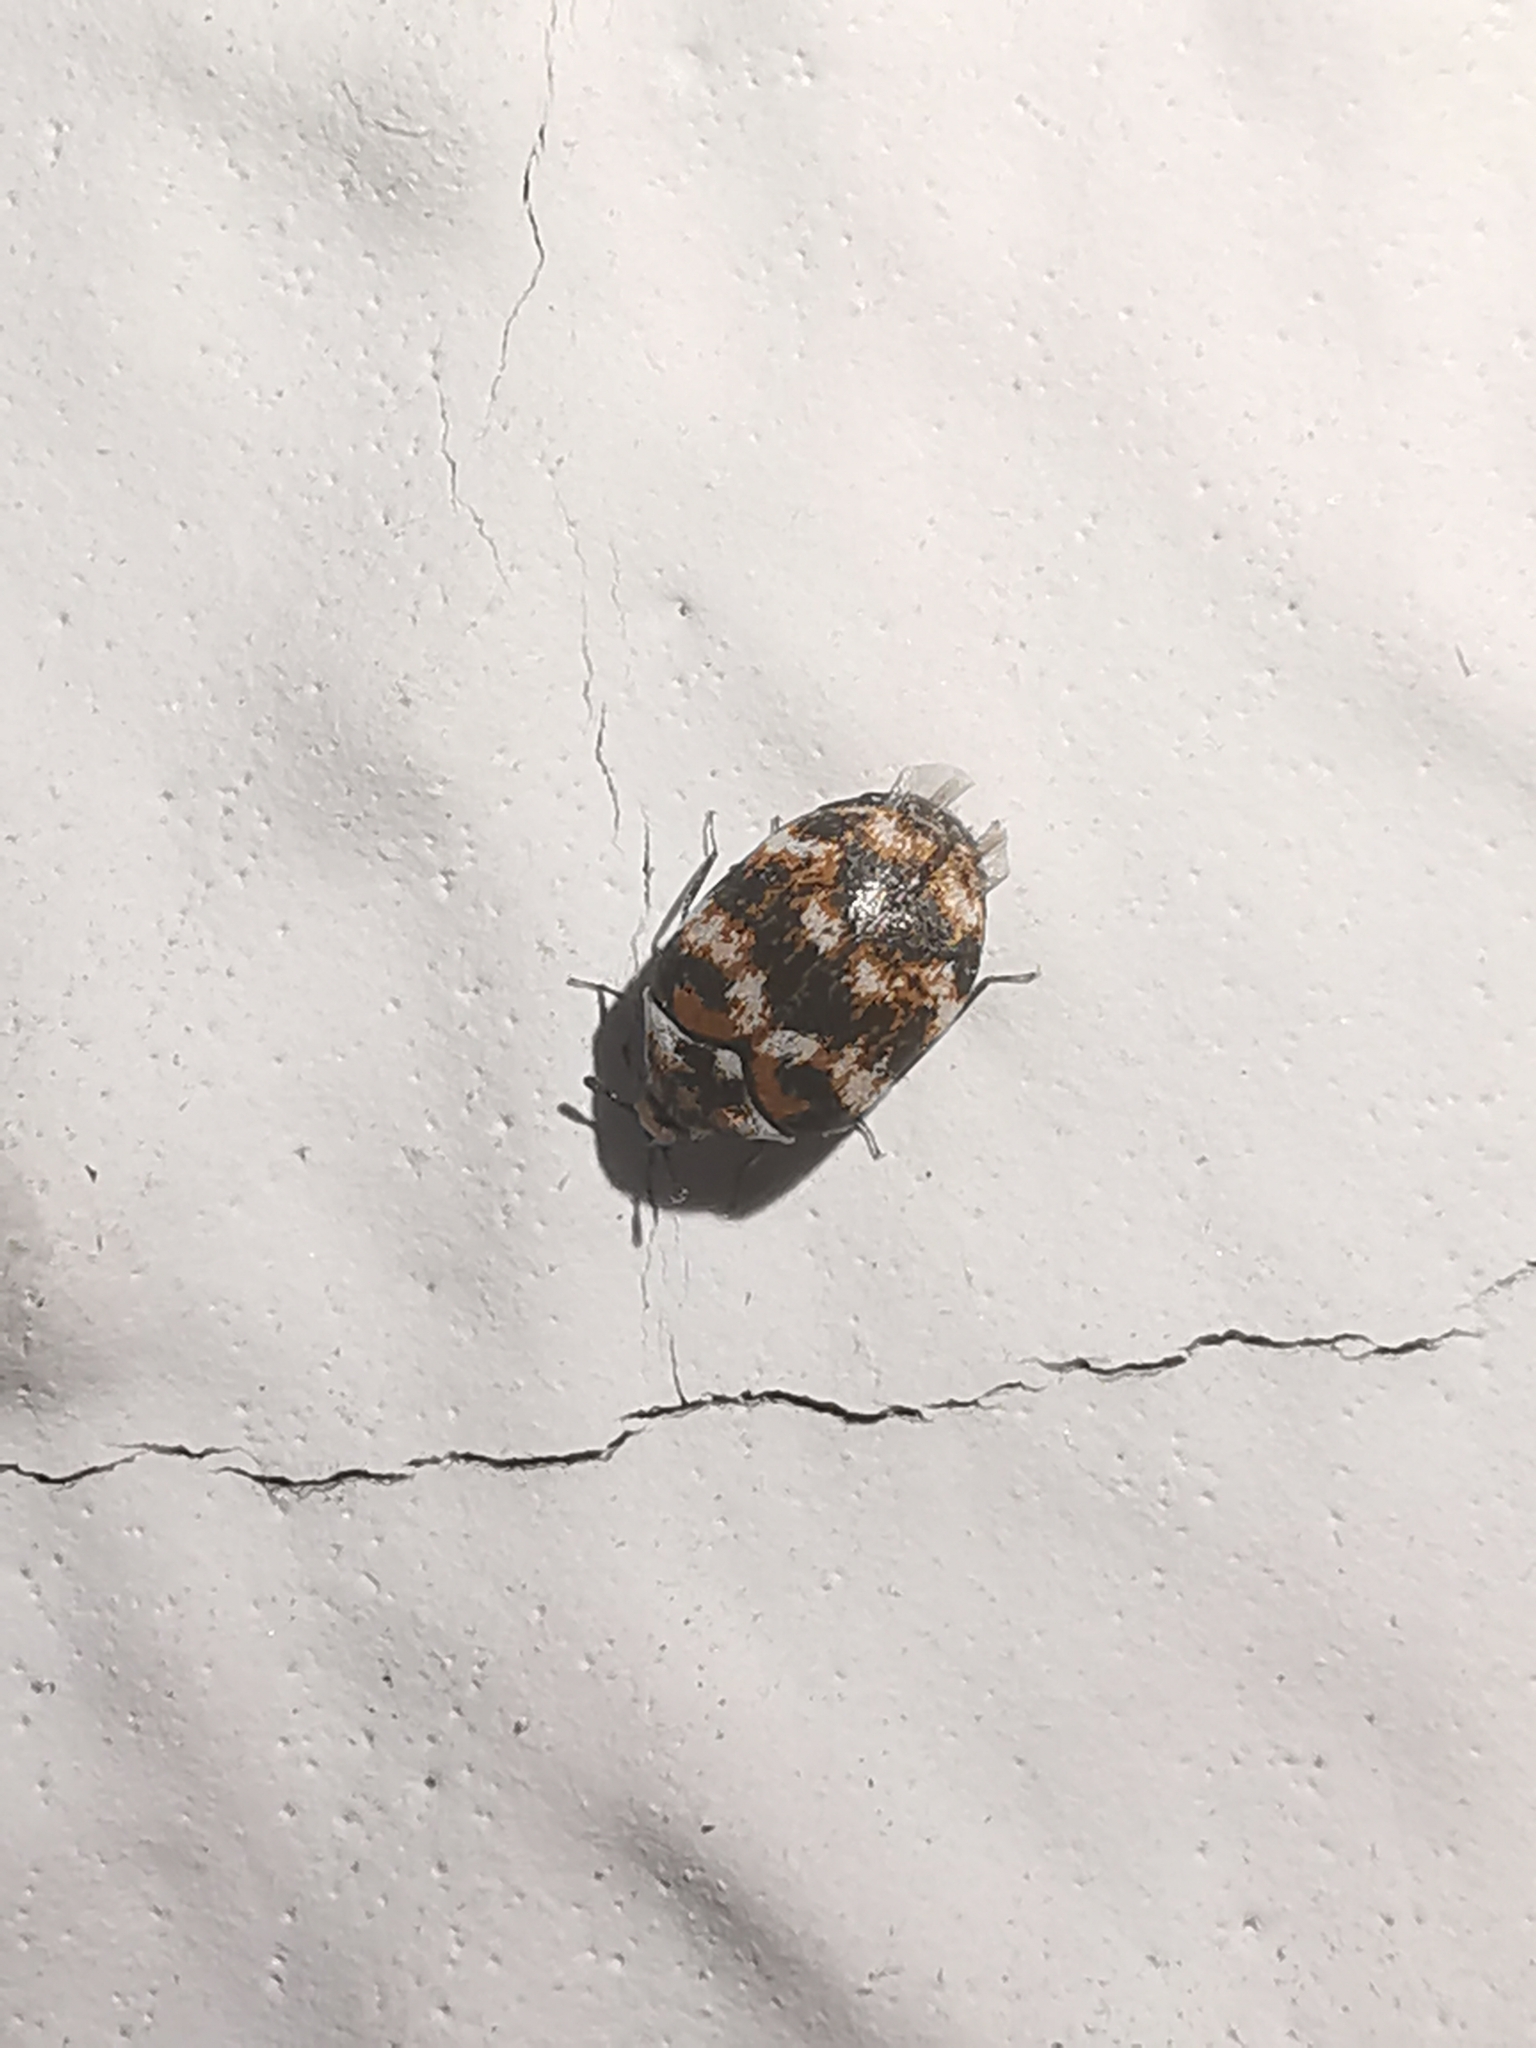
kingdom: Animalia
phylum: Arthropoda
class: Insecta
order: Coleoptera
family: Dermestidae
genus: Anthrenus
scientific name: Anthrenus verbasci
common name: Varied carpet beetle
